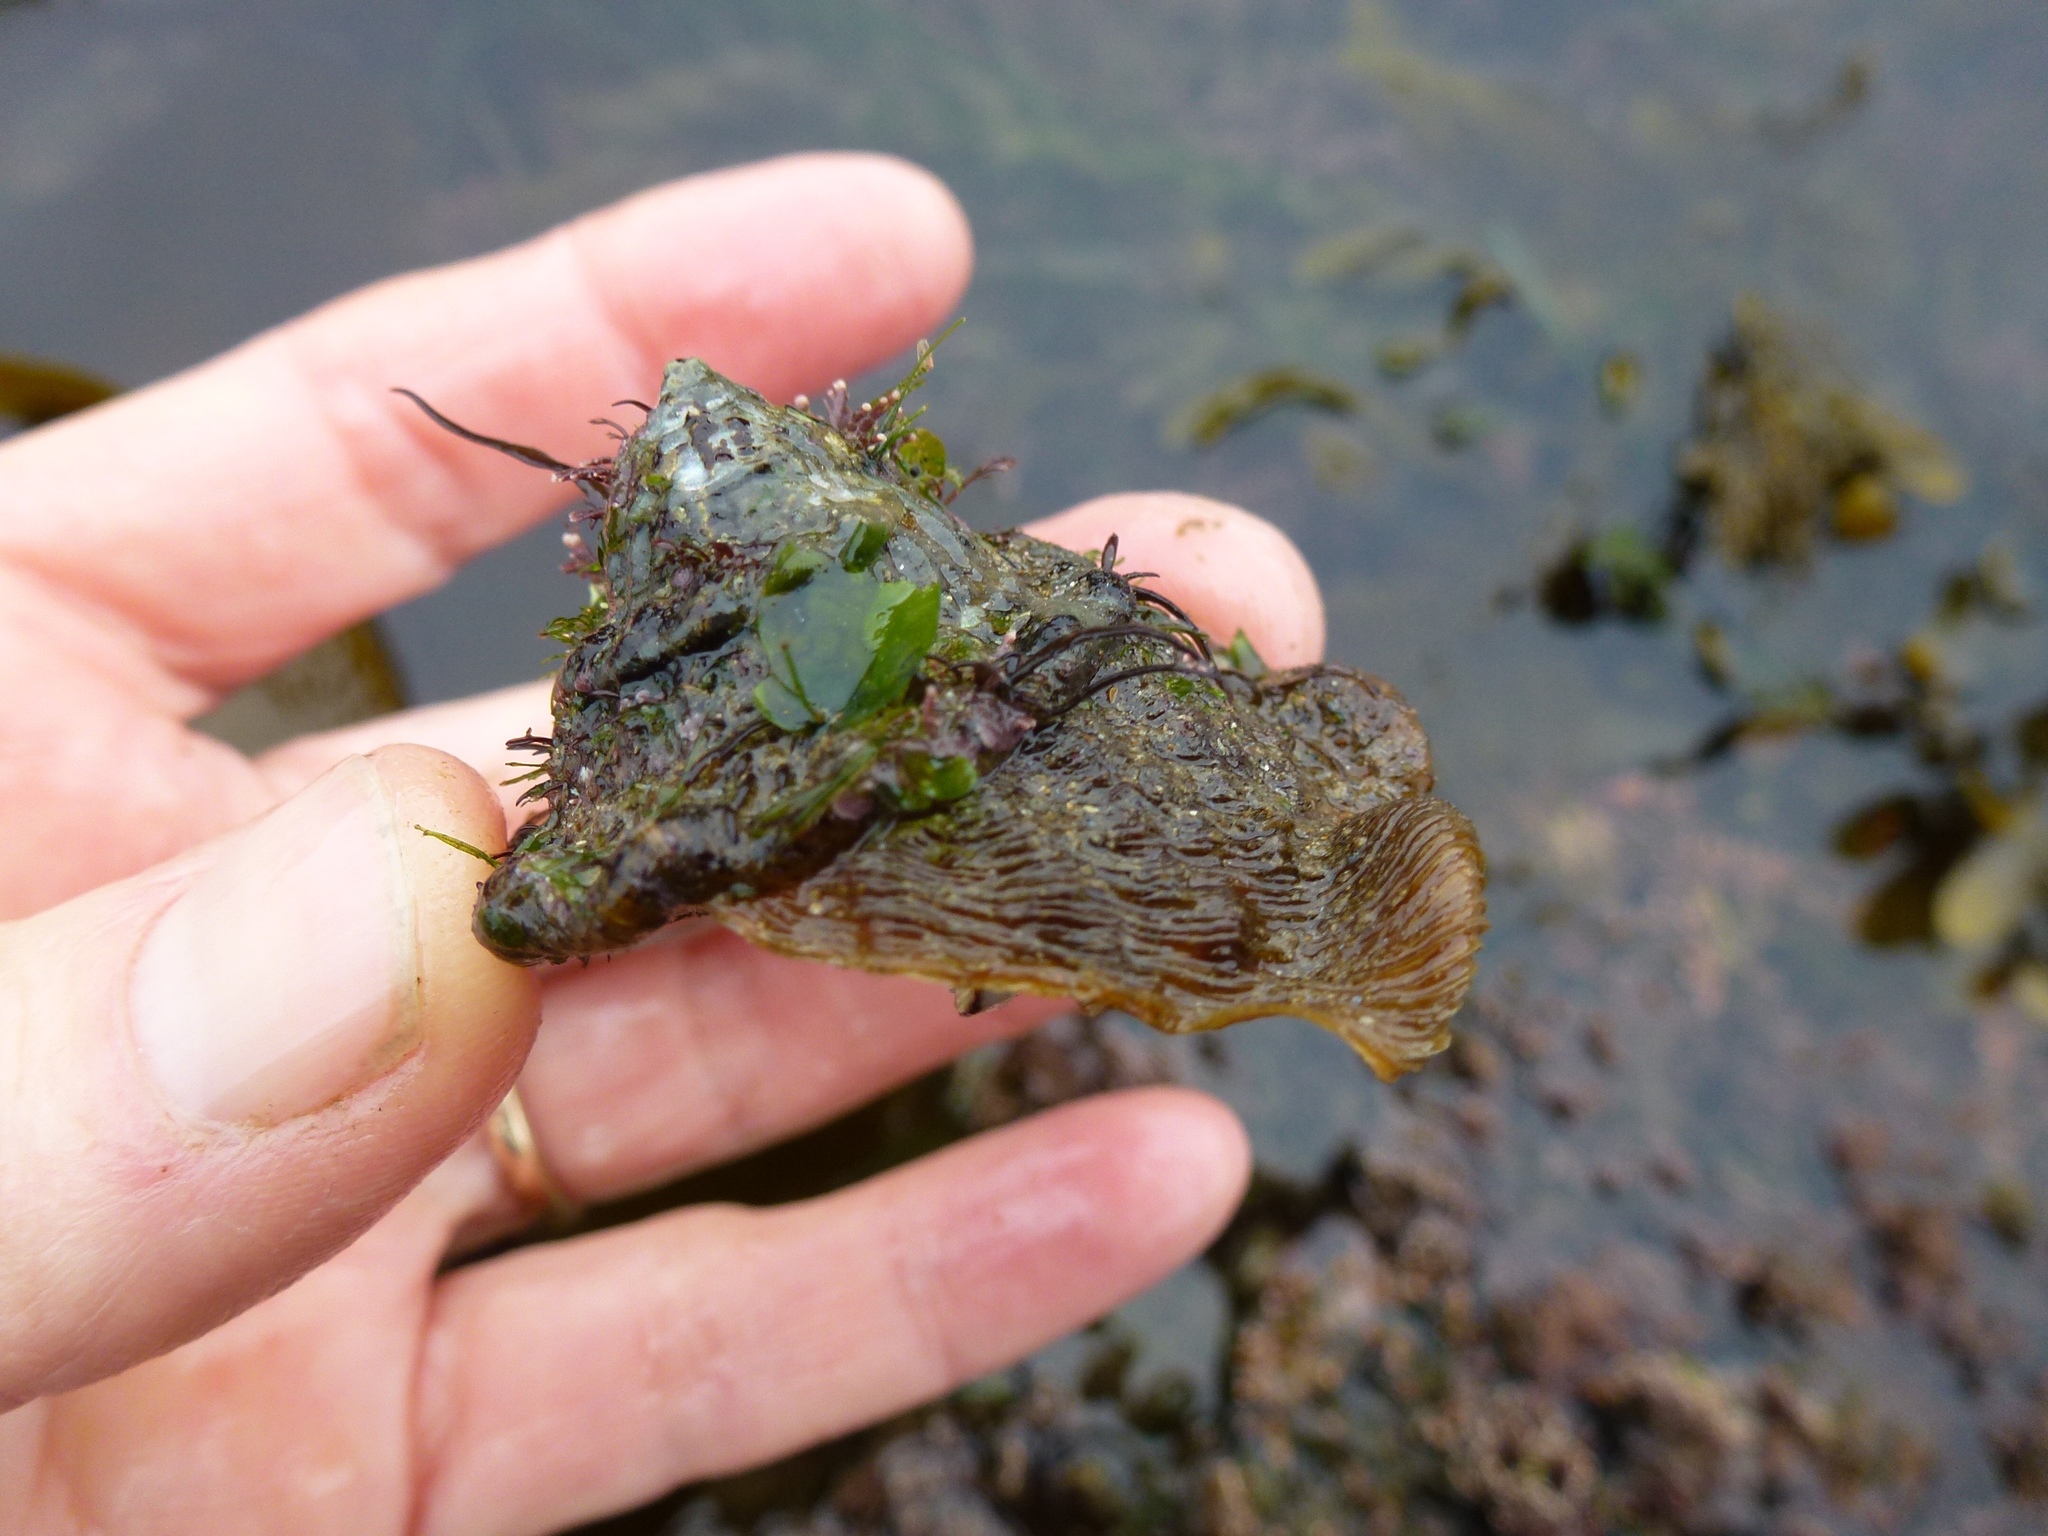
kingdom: Animalia
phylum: Mollusca
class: Gastropoda
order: Trochida
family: Turbinidae
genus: Megastraea
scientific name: Megastraea undosa
